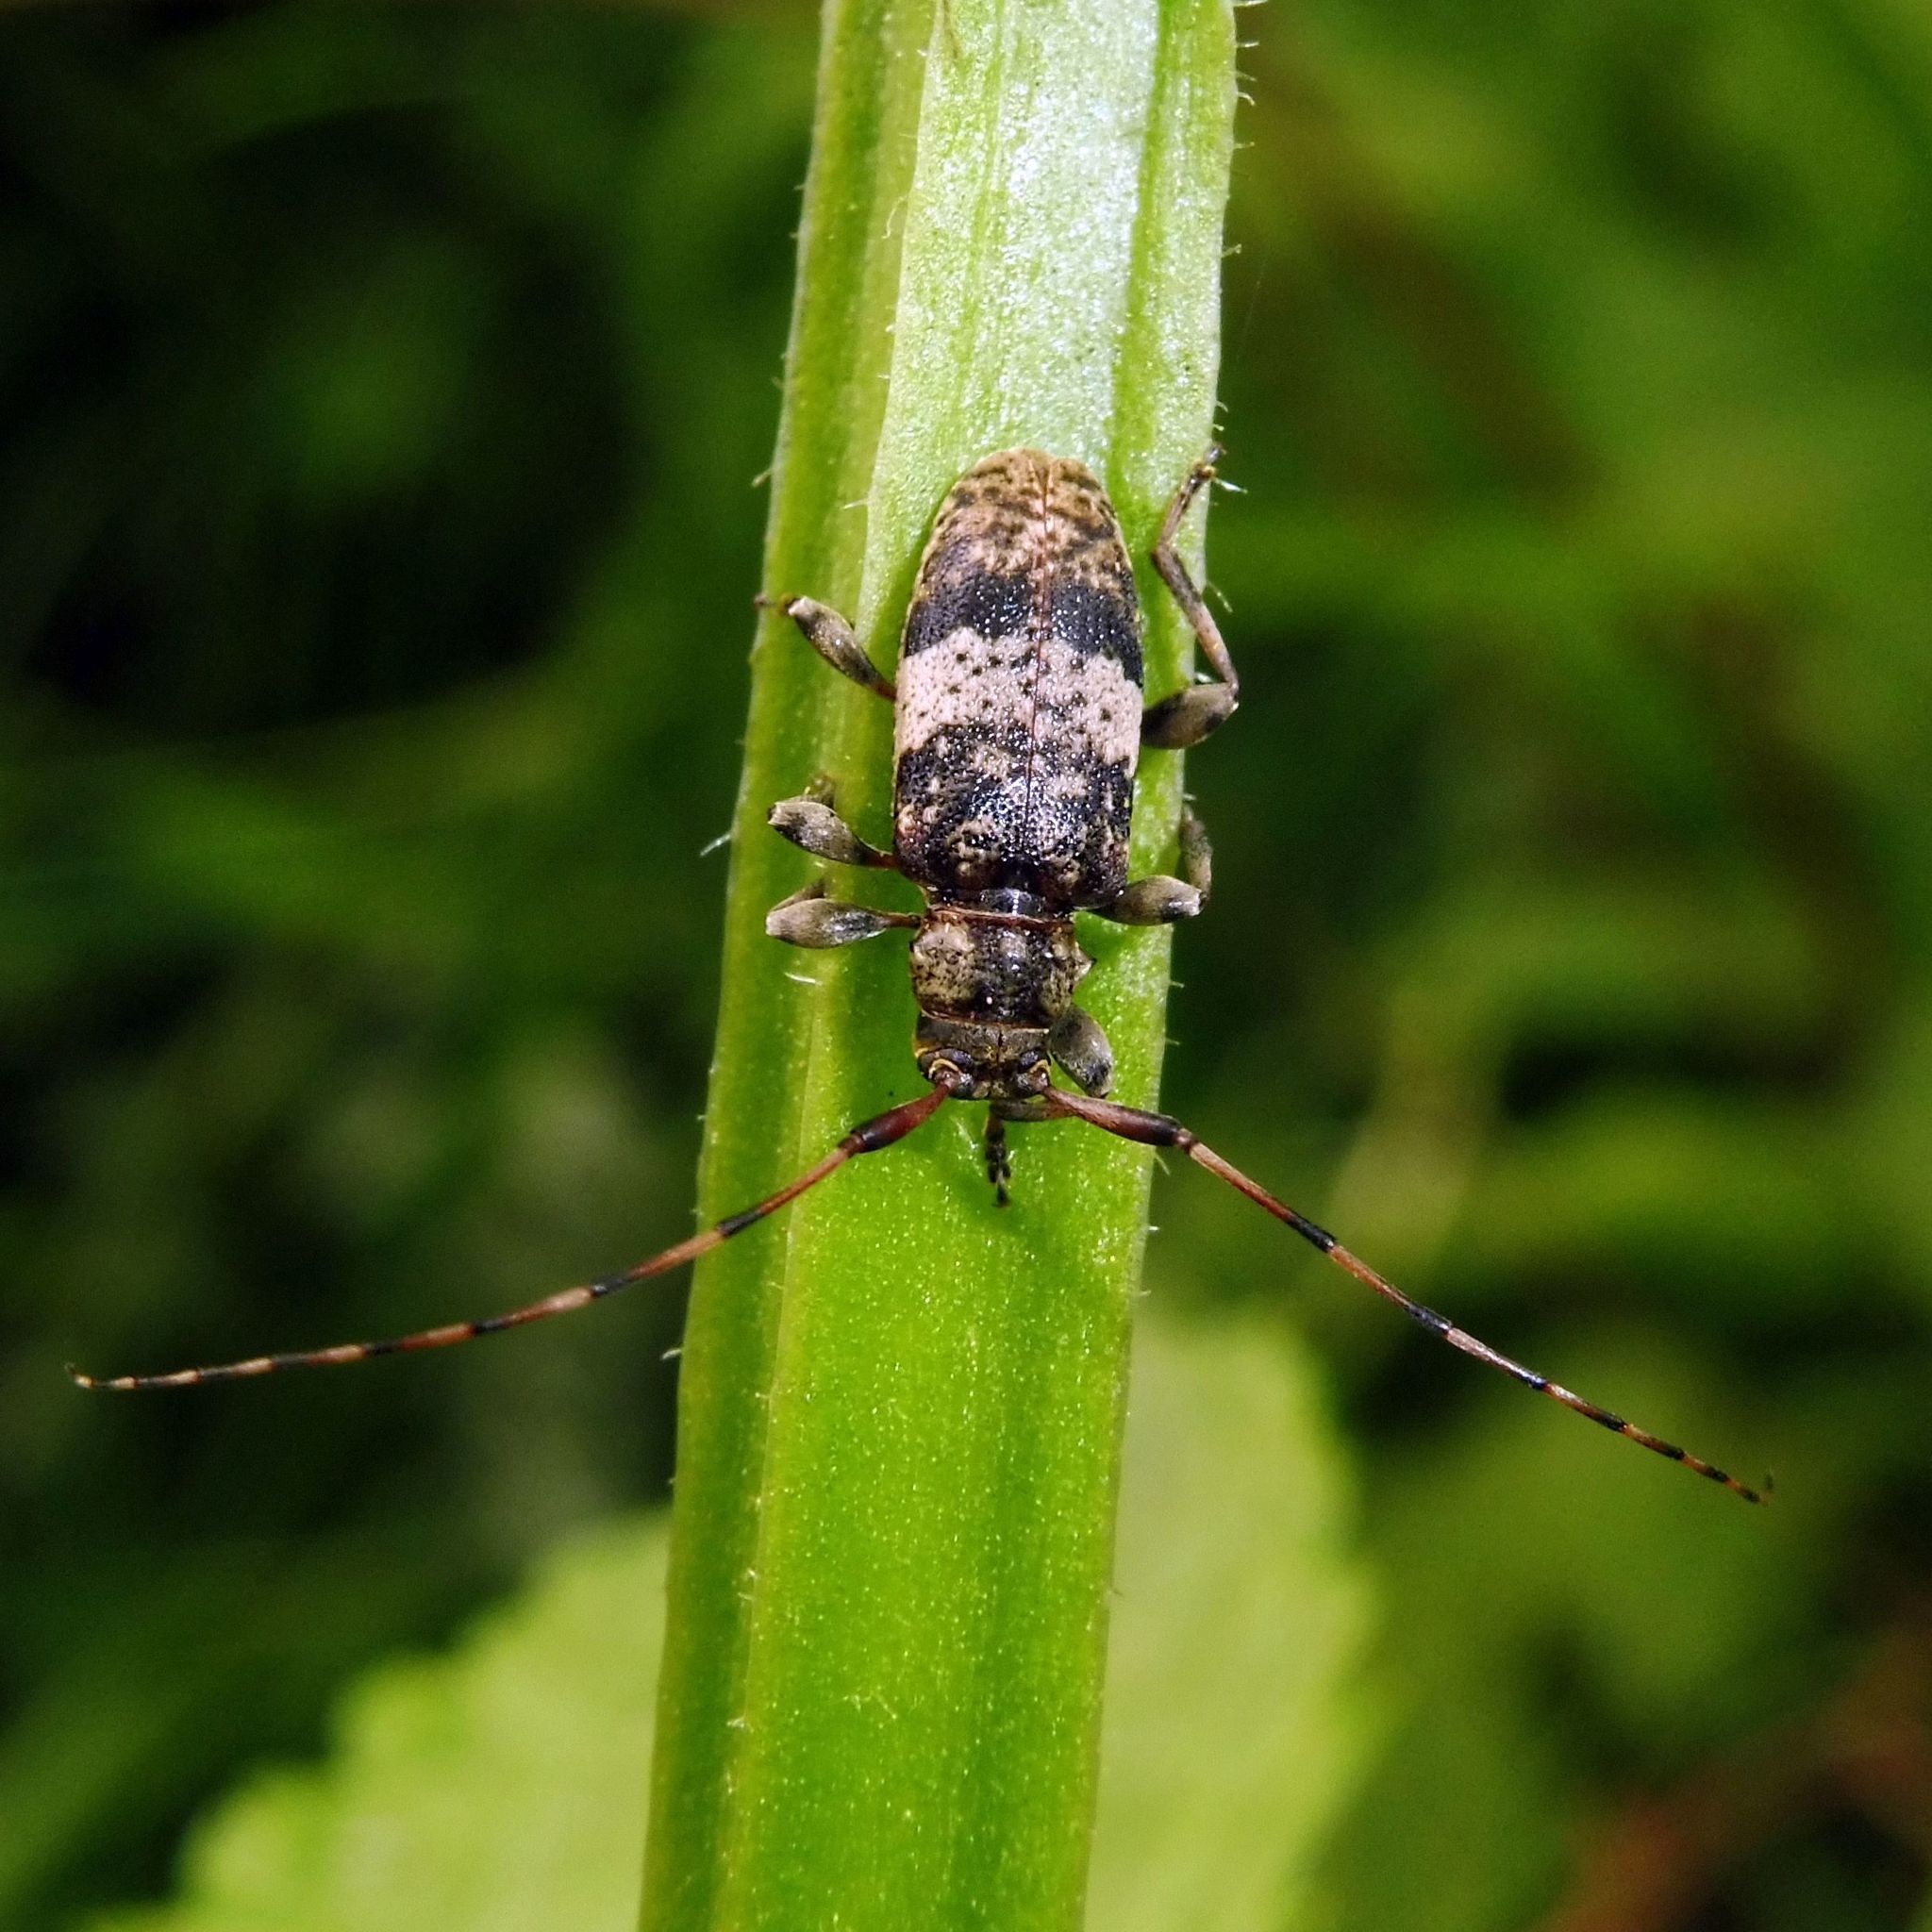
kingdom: Animalia
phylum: Arthropoda
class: Insecta
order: Coleoptera
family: Cerambycidae
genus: Leiopus
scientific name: Leiopus
